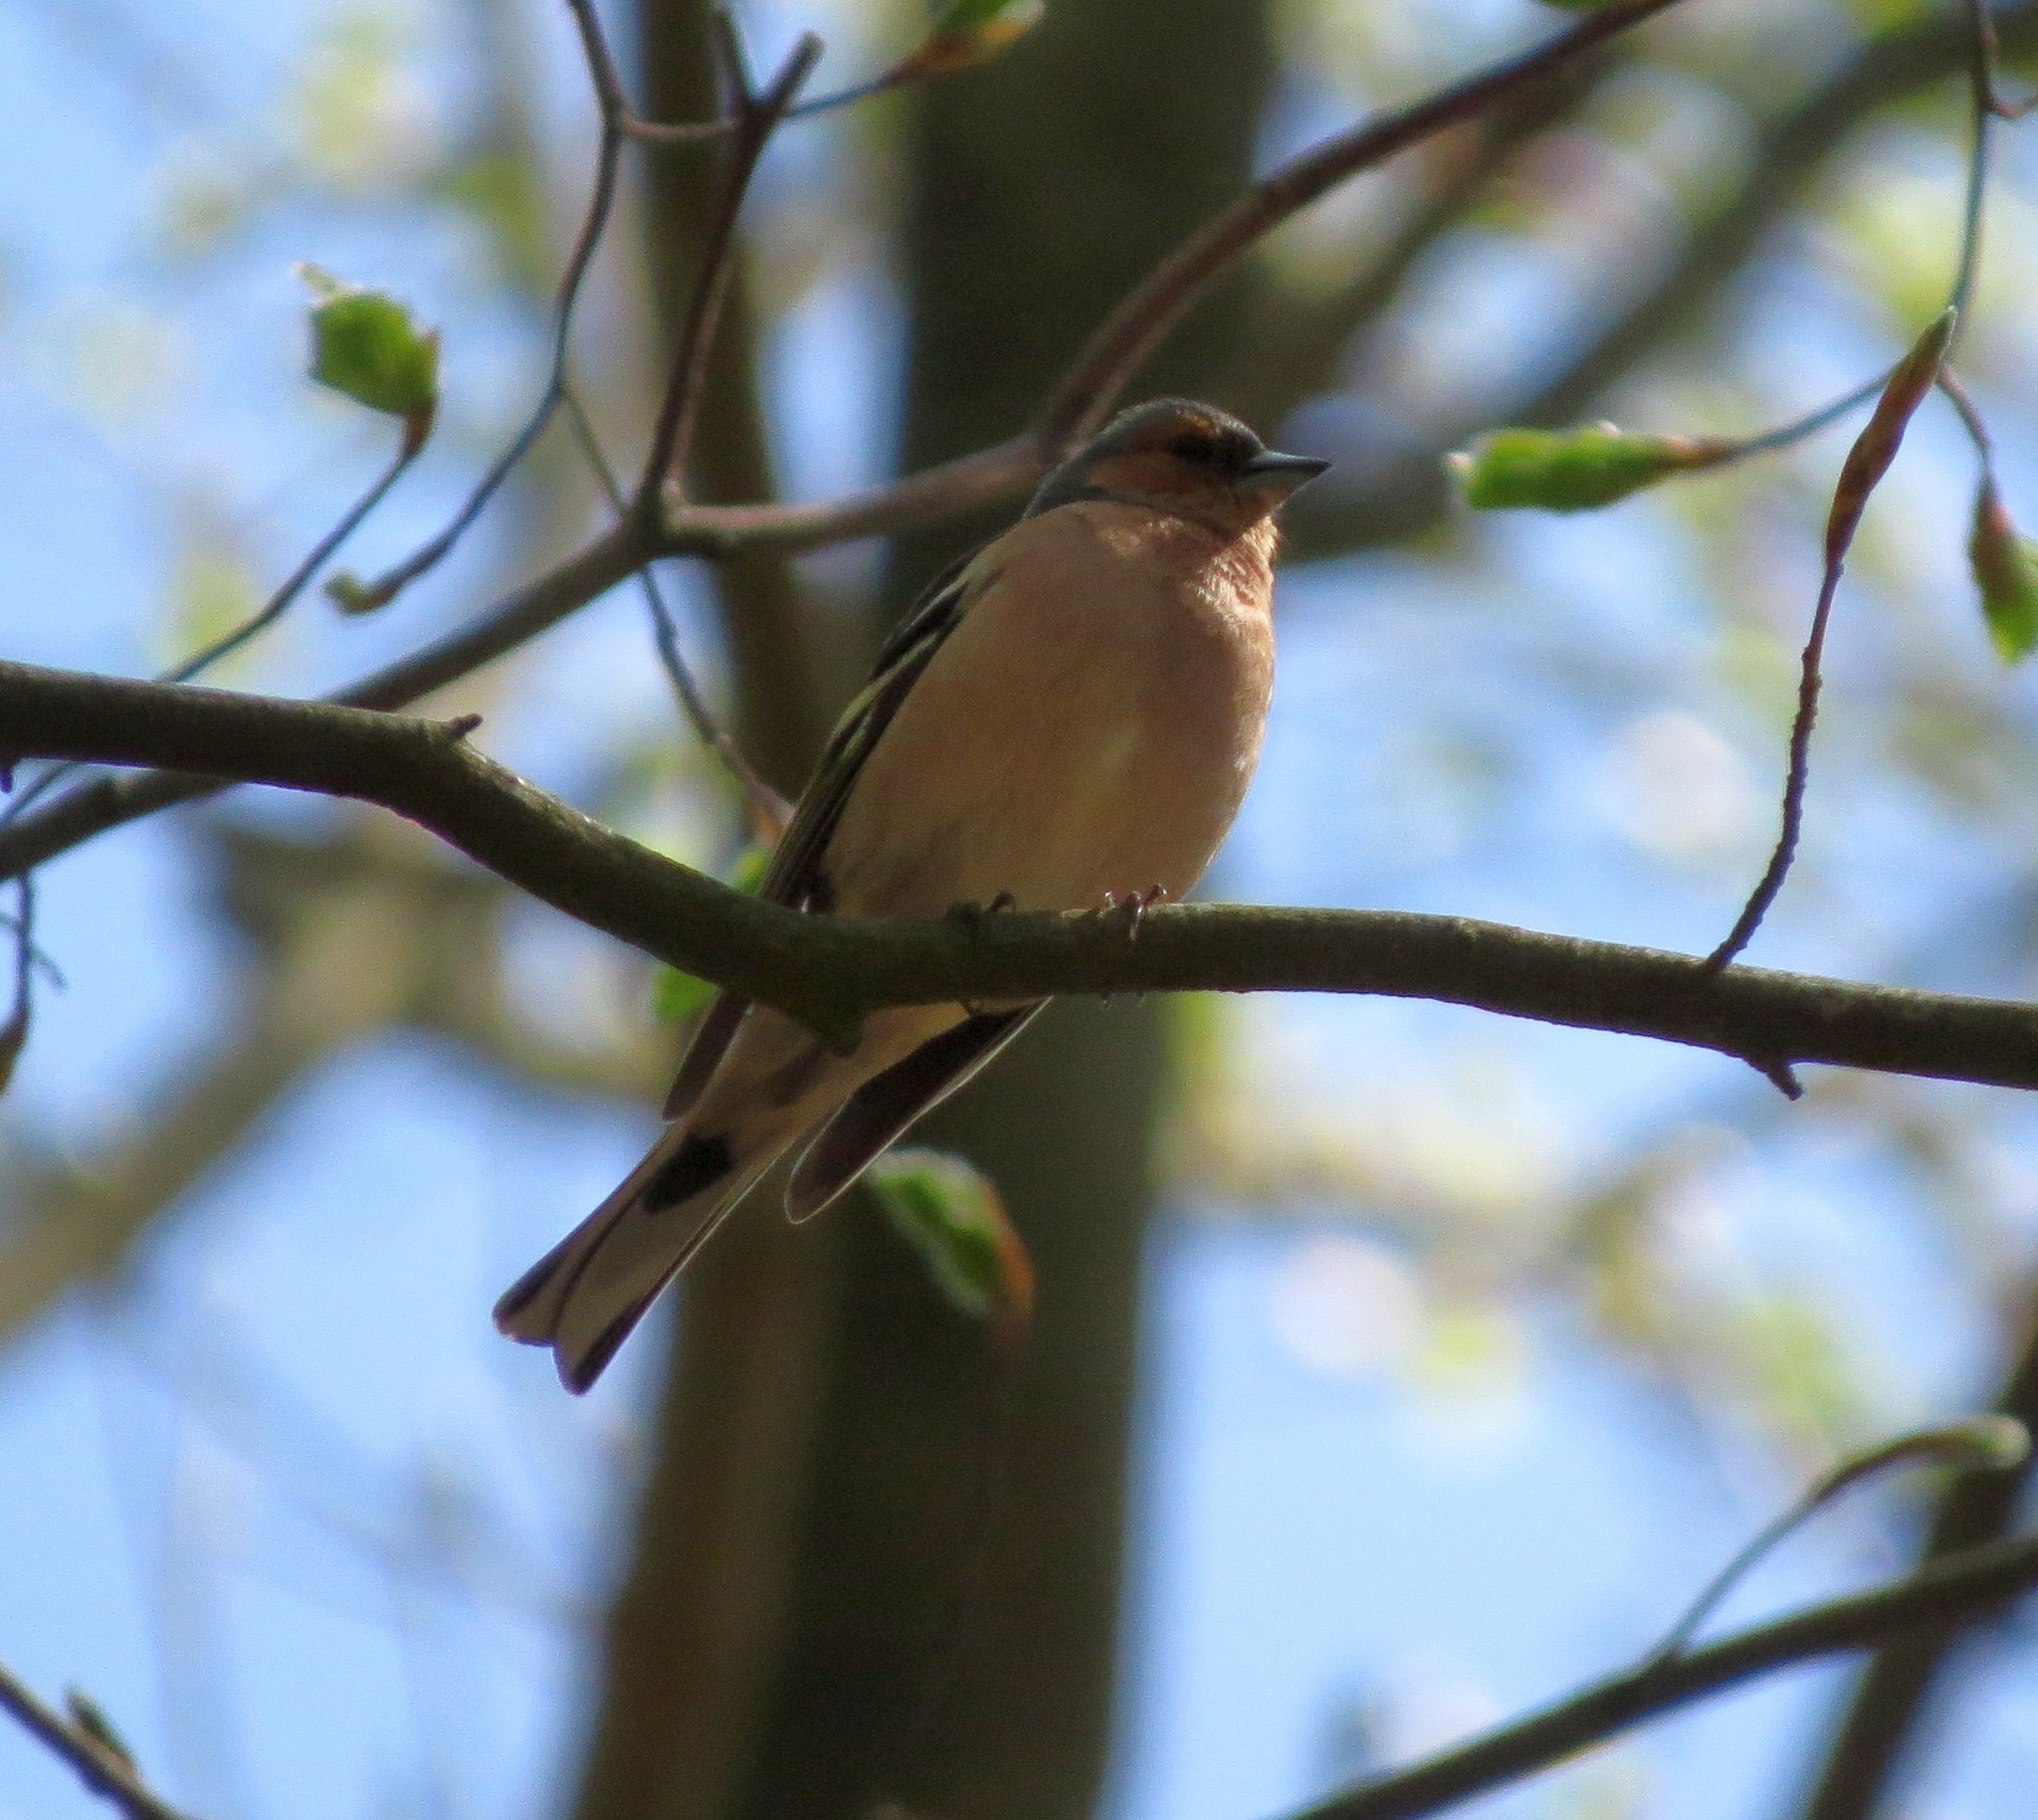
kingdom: Animalia
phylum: Chordata
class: Aves
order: Passeriformes
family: Fringillidae
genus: Fringilla
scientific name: Fringilla coelebs
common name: Common chaffinch
